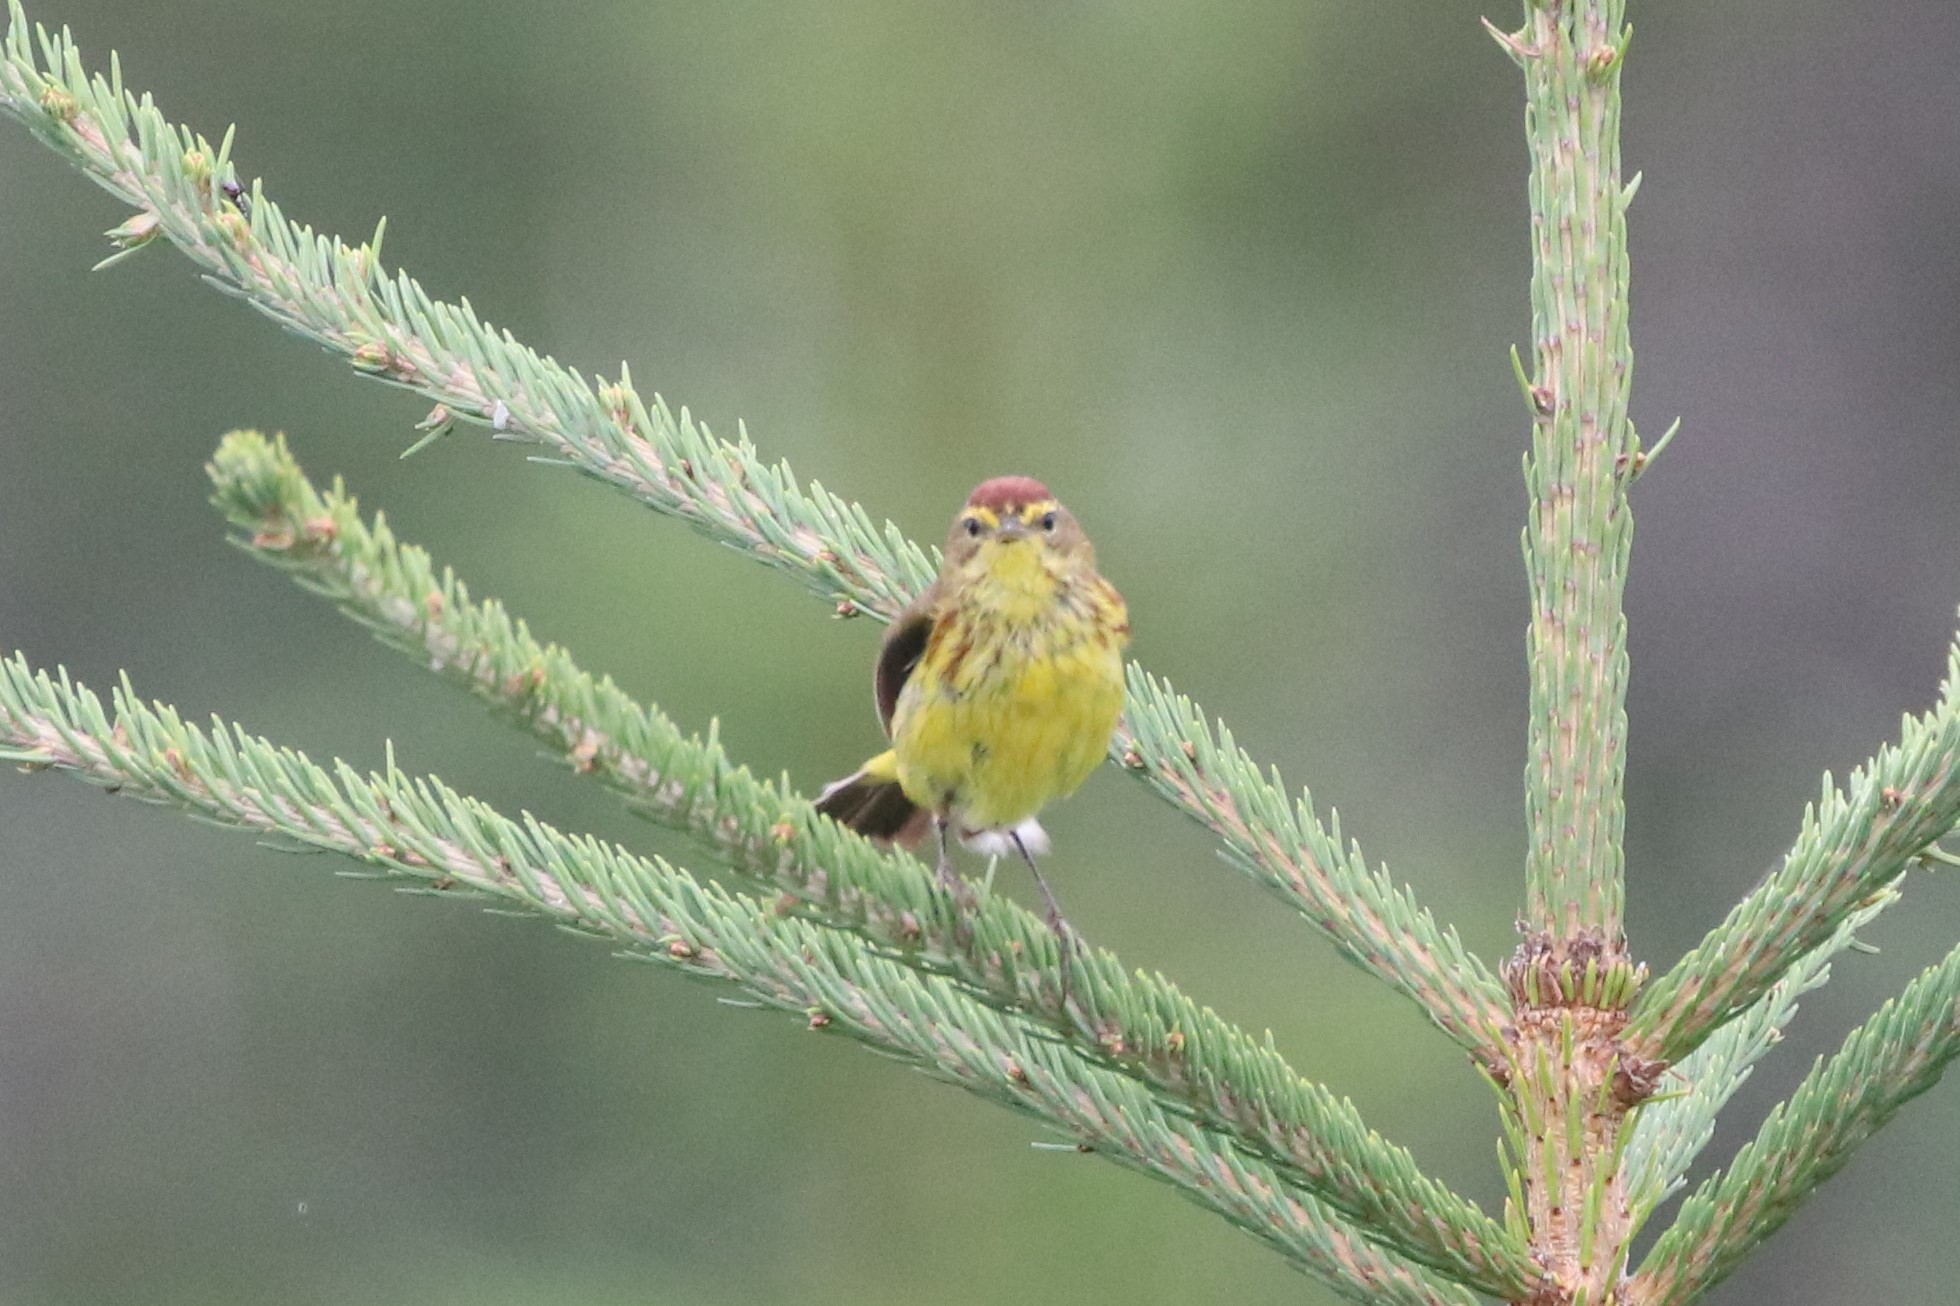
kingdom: Animalia
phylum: Chordata
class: Aves
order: Passeriformes
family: Parulidae
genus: Setophaga
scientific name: Setophaga palmarum
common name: Palm warbler
